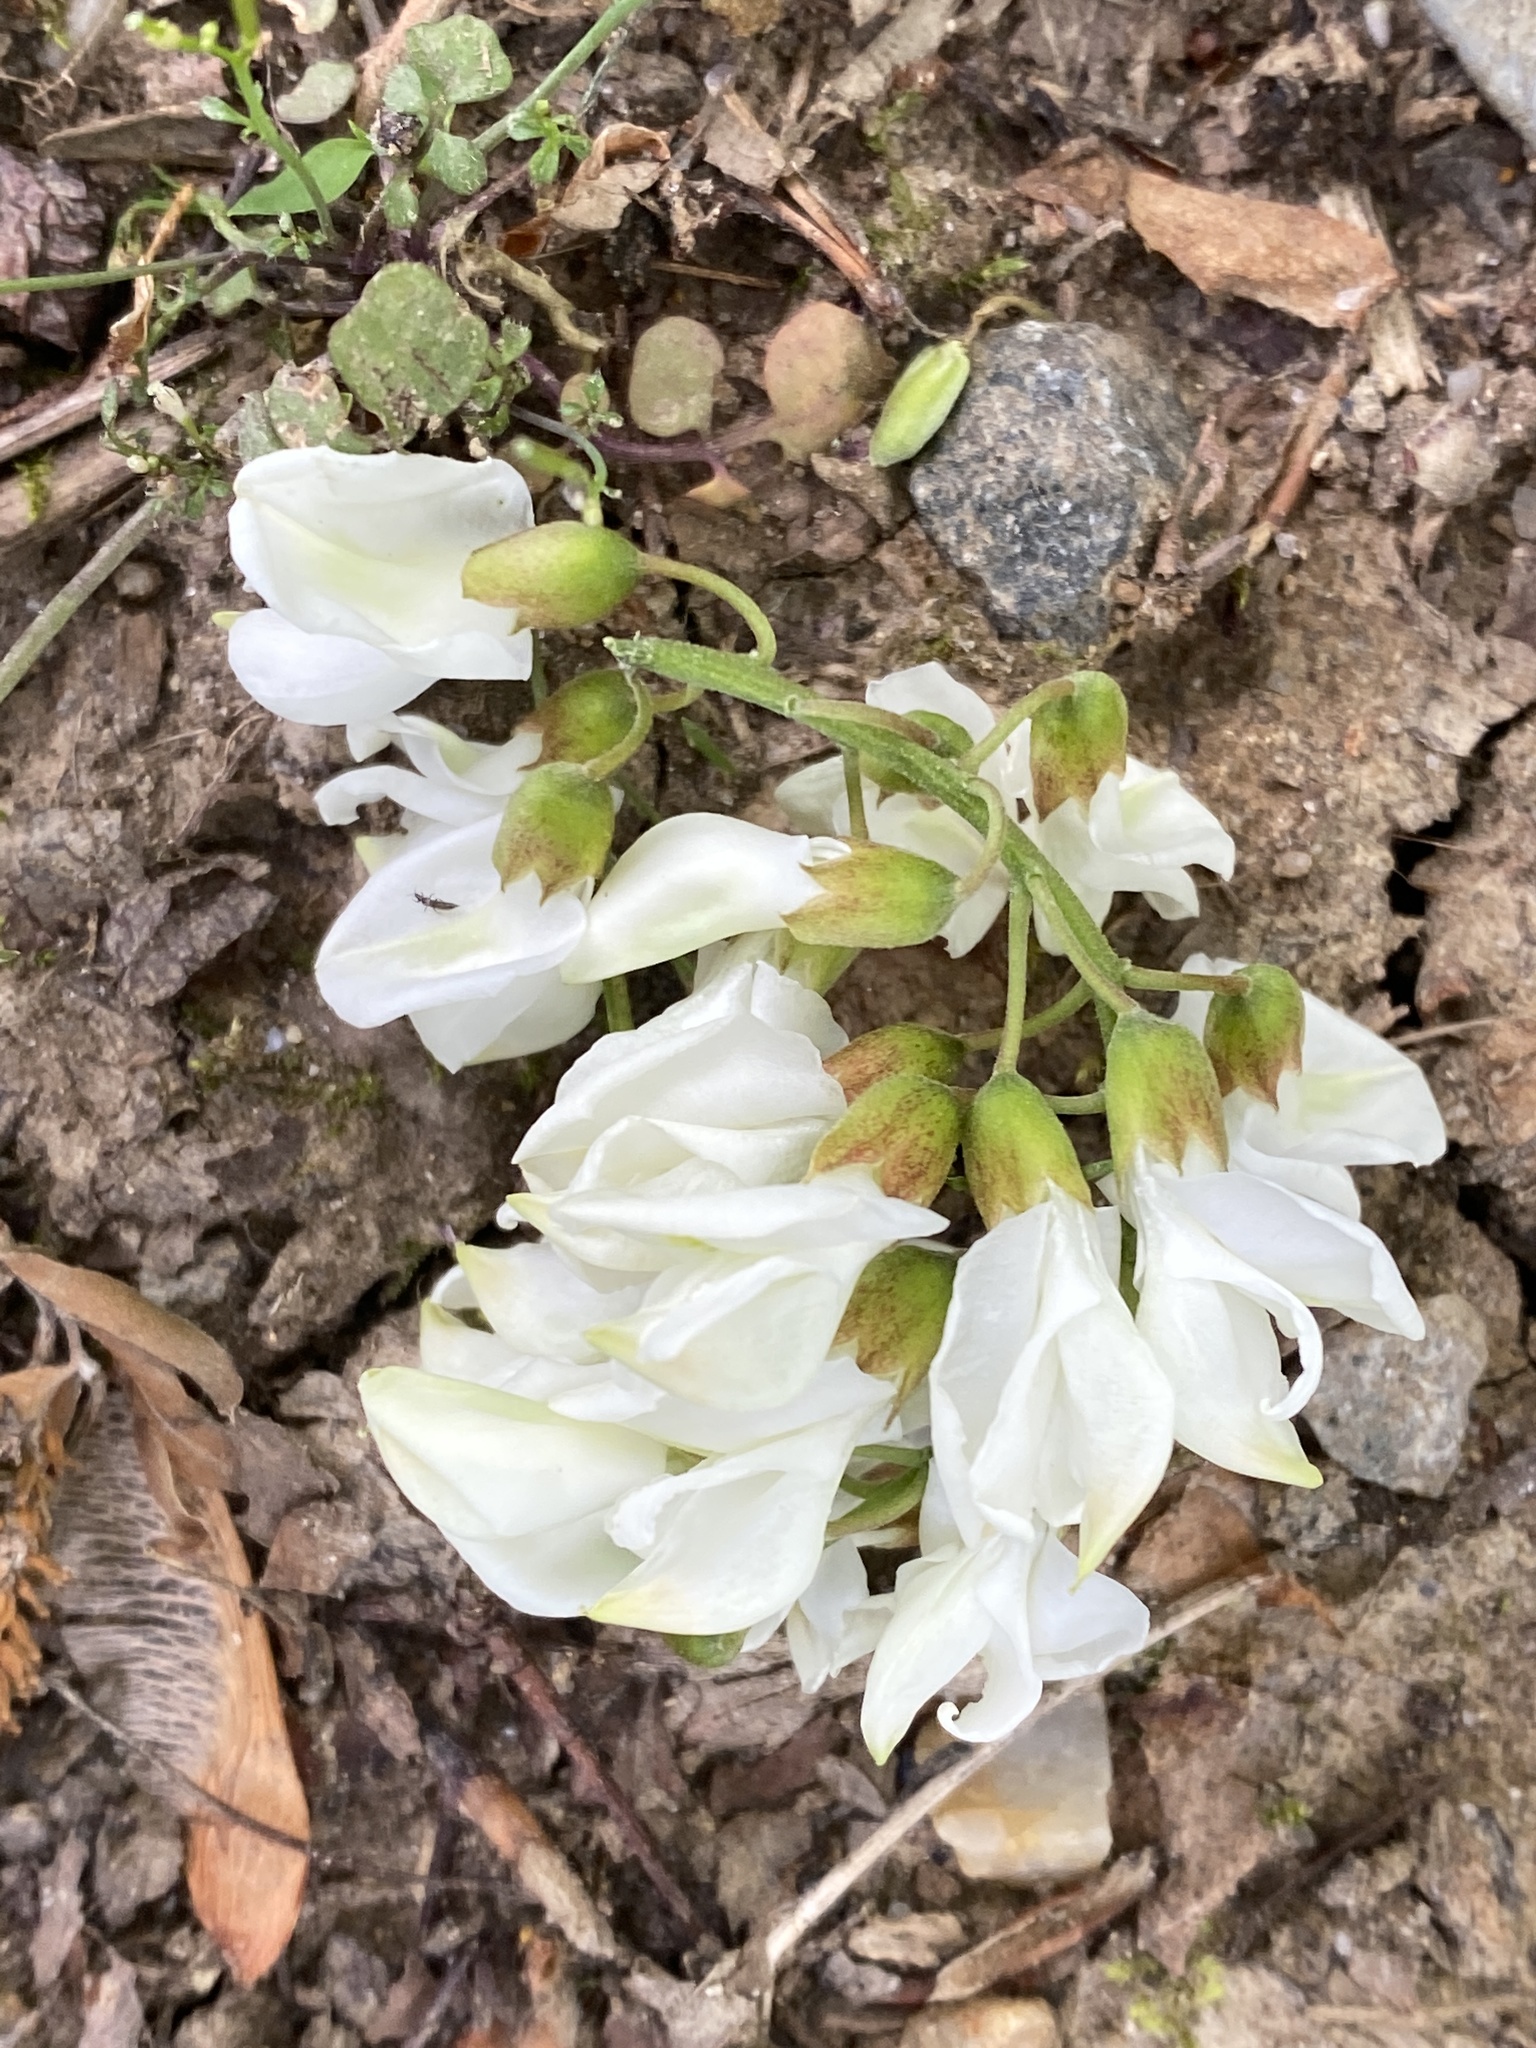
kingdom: Plantae
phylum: Tracheophyta
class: Magnoliopsida
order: Fabales
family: Fabaceae
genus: Robinia
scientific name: Robinia pseudoacacia
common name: Black locust
